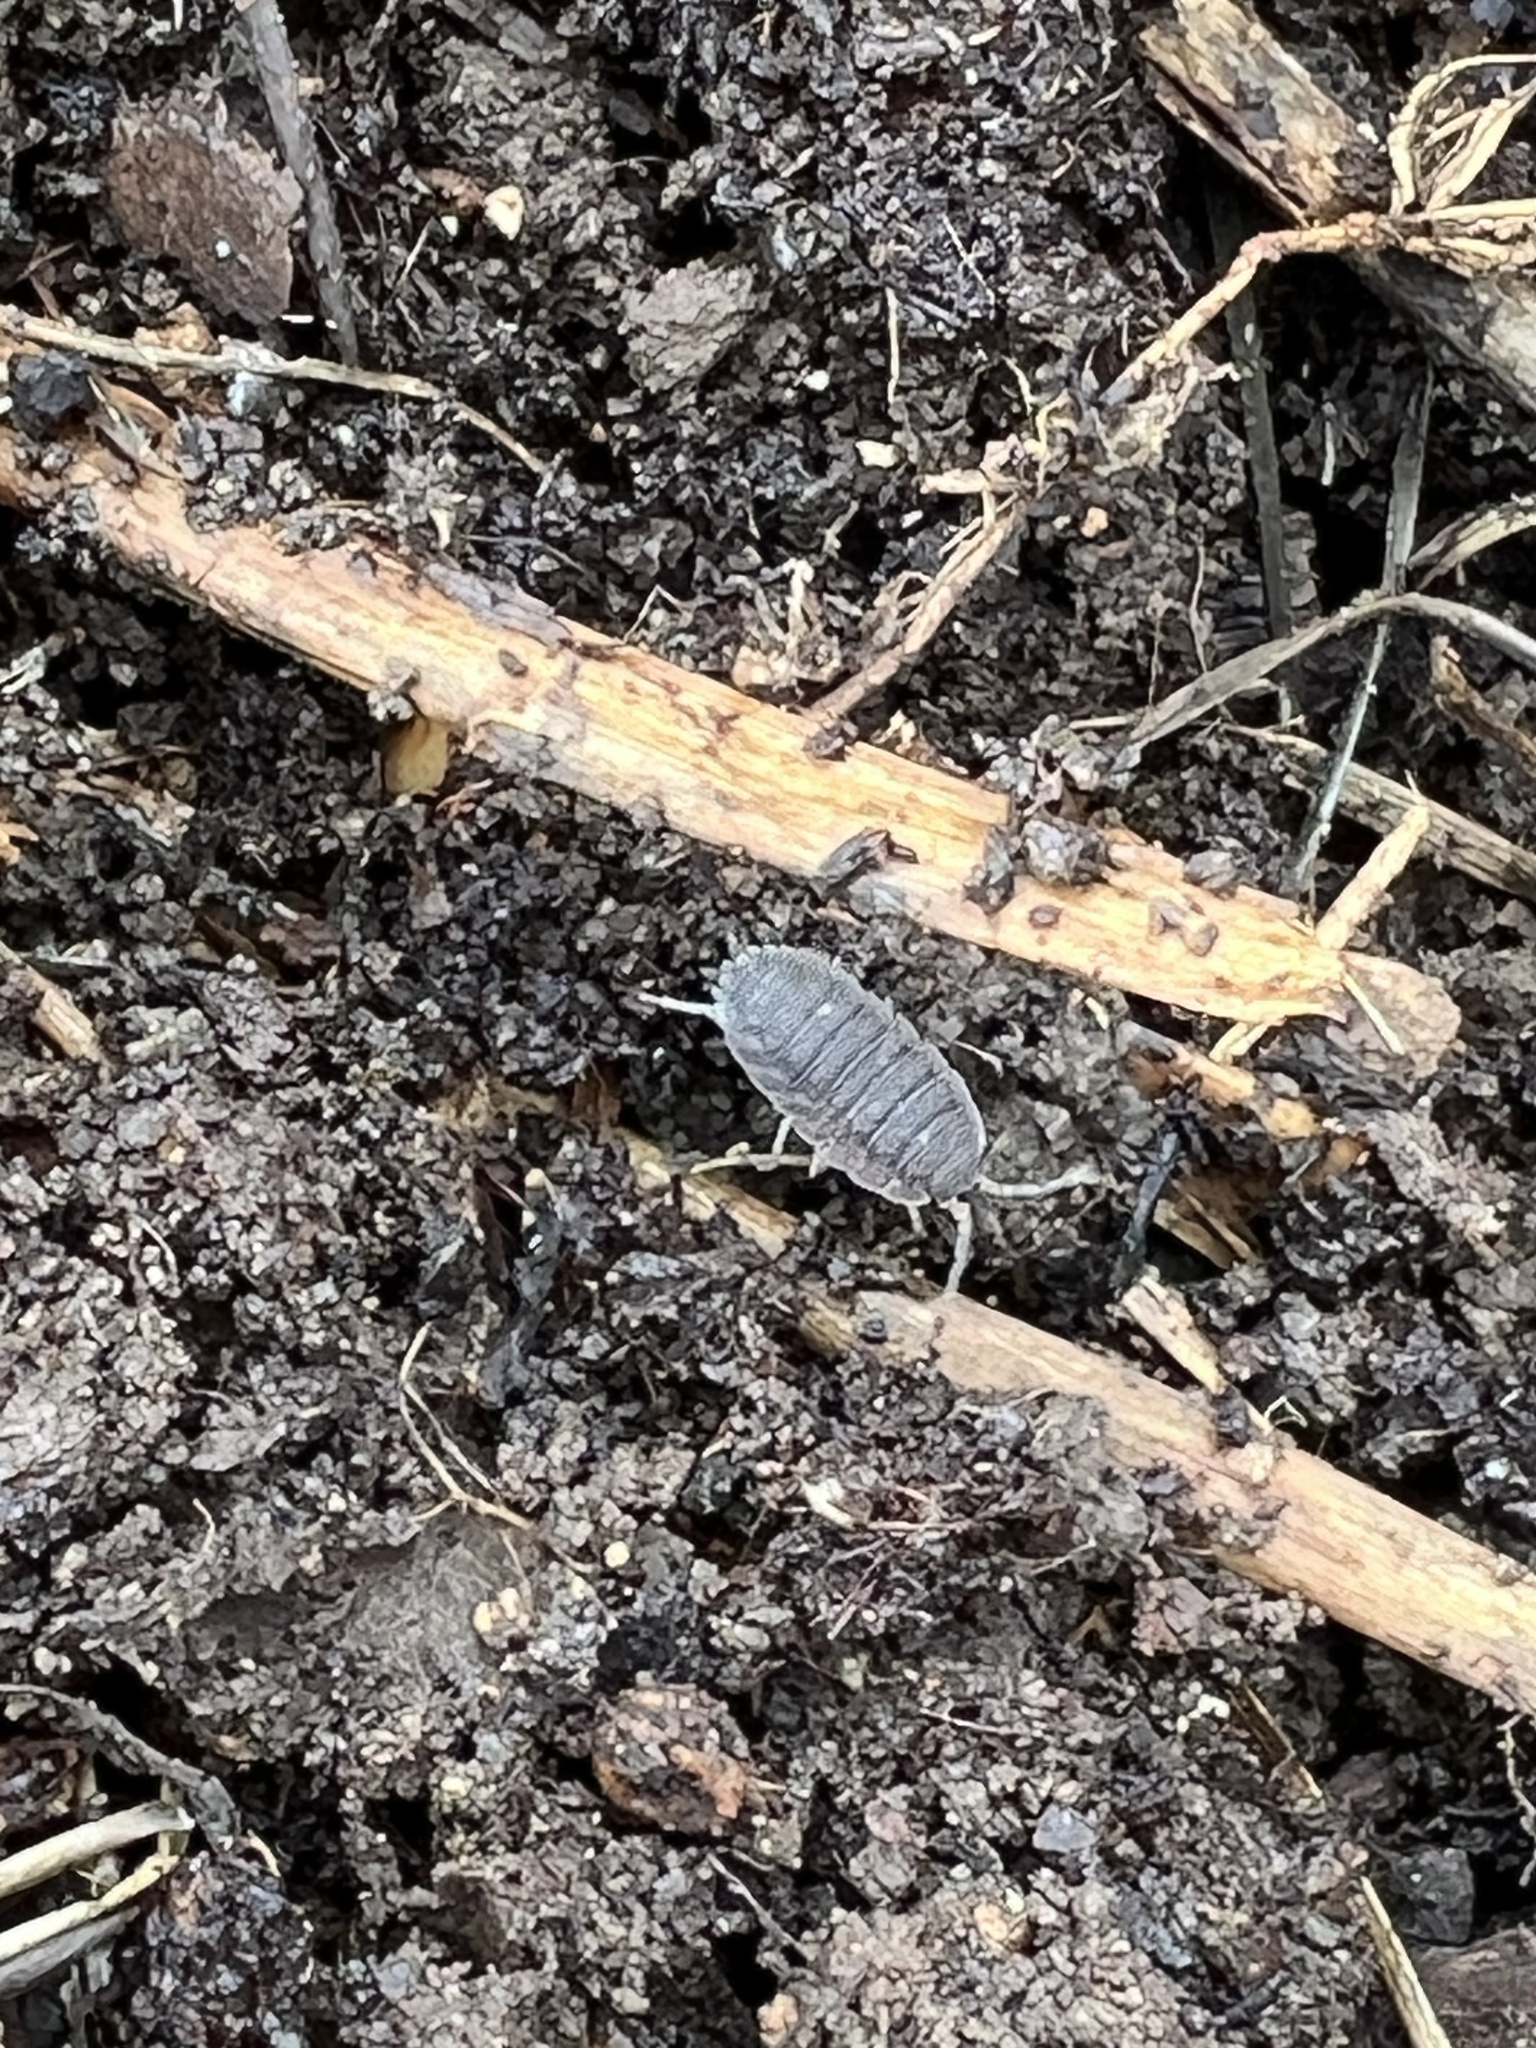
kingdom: Animalia
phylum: Arthropoda
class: Malacostraca
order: Isopoda
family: Porcellionidae
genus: Porcellio
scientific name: Porcellio scaber
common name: Common rough woodlouse
